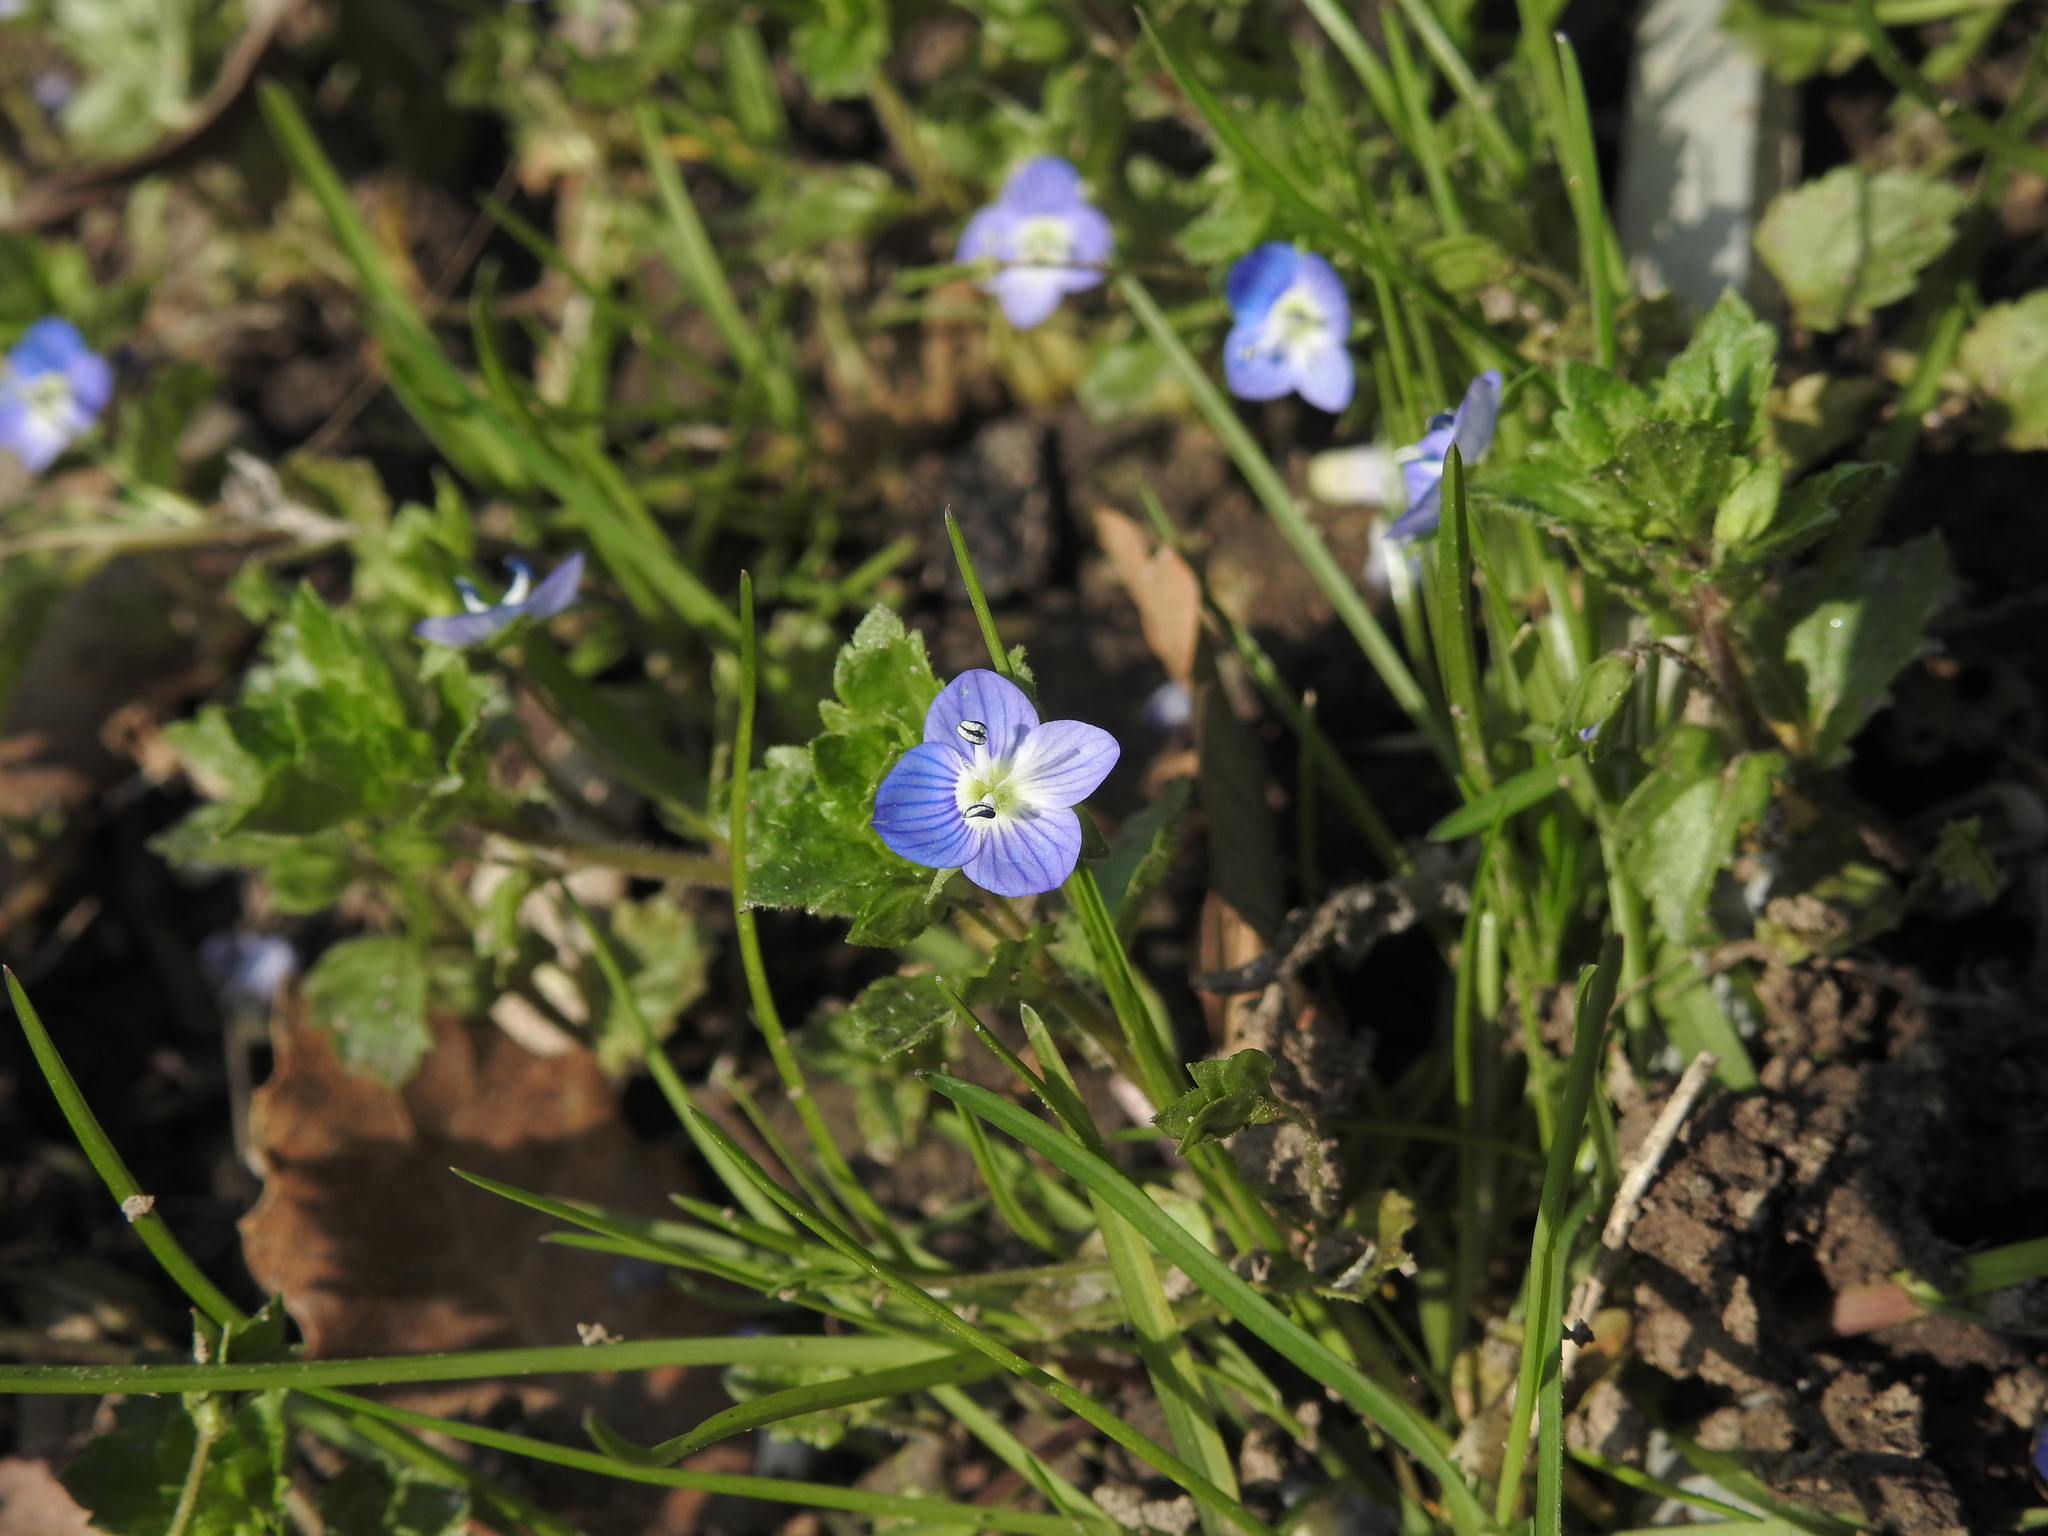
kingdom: Plantae
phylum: Tracheophyta
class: Magnoliopsida
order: Lamiales
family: Plantaginaceae
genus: Veronica
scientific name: Veronica persica
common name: Common field-speedwell
